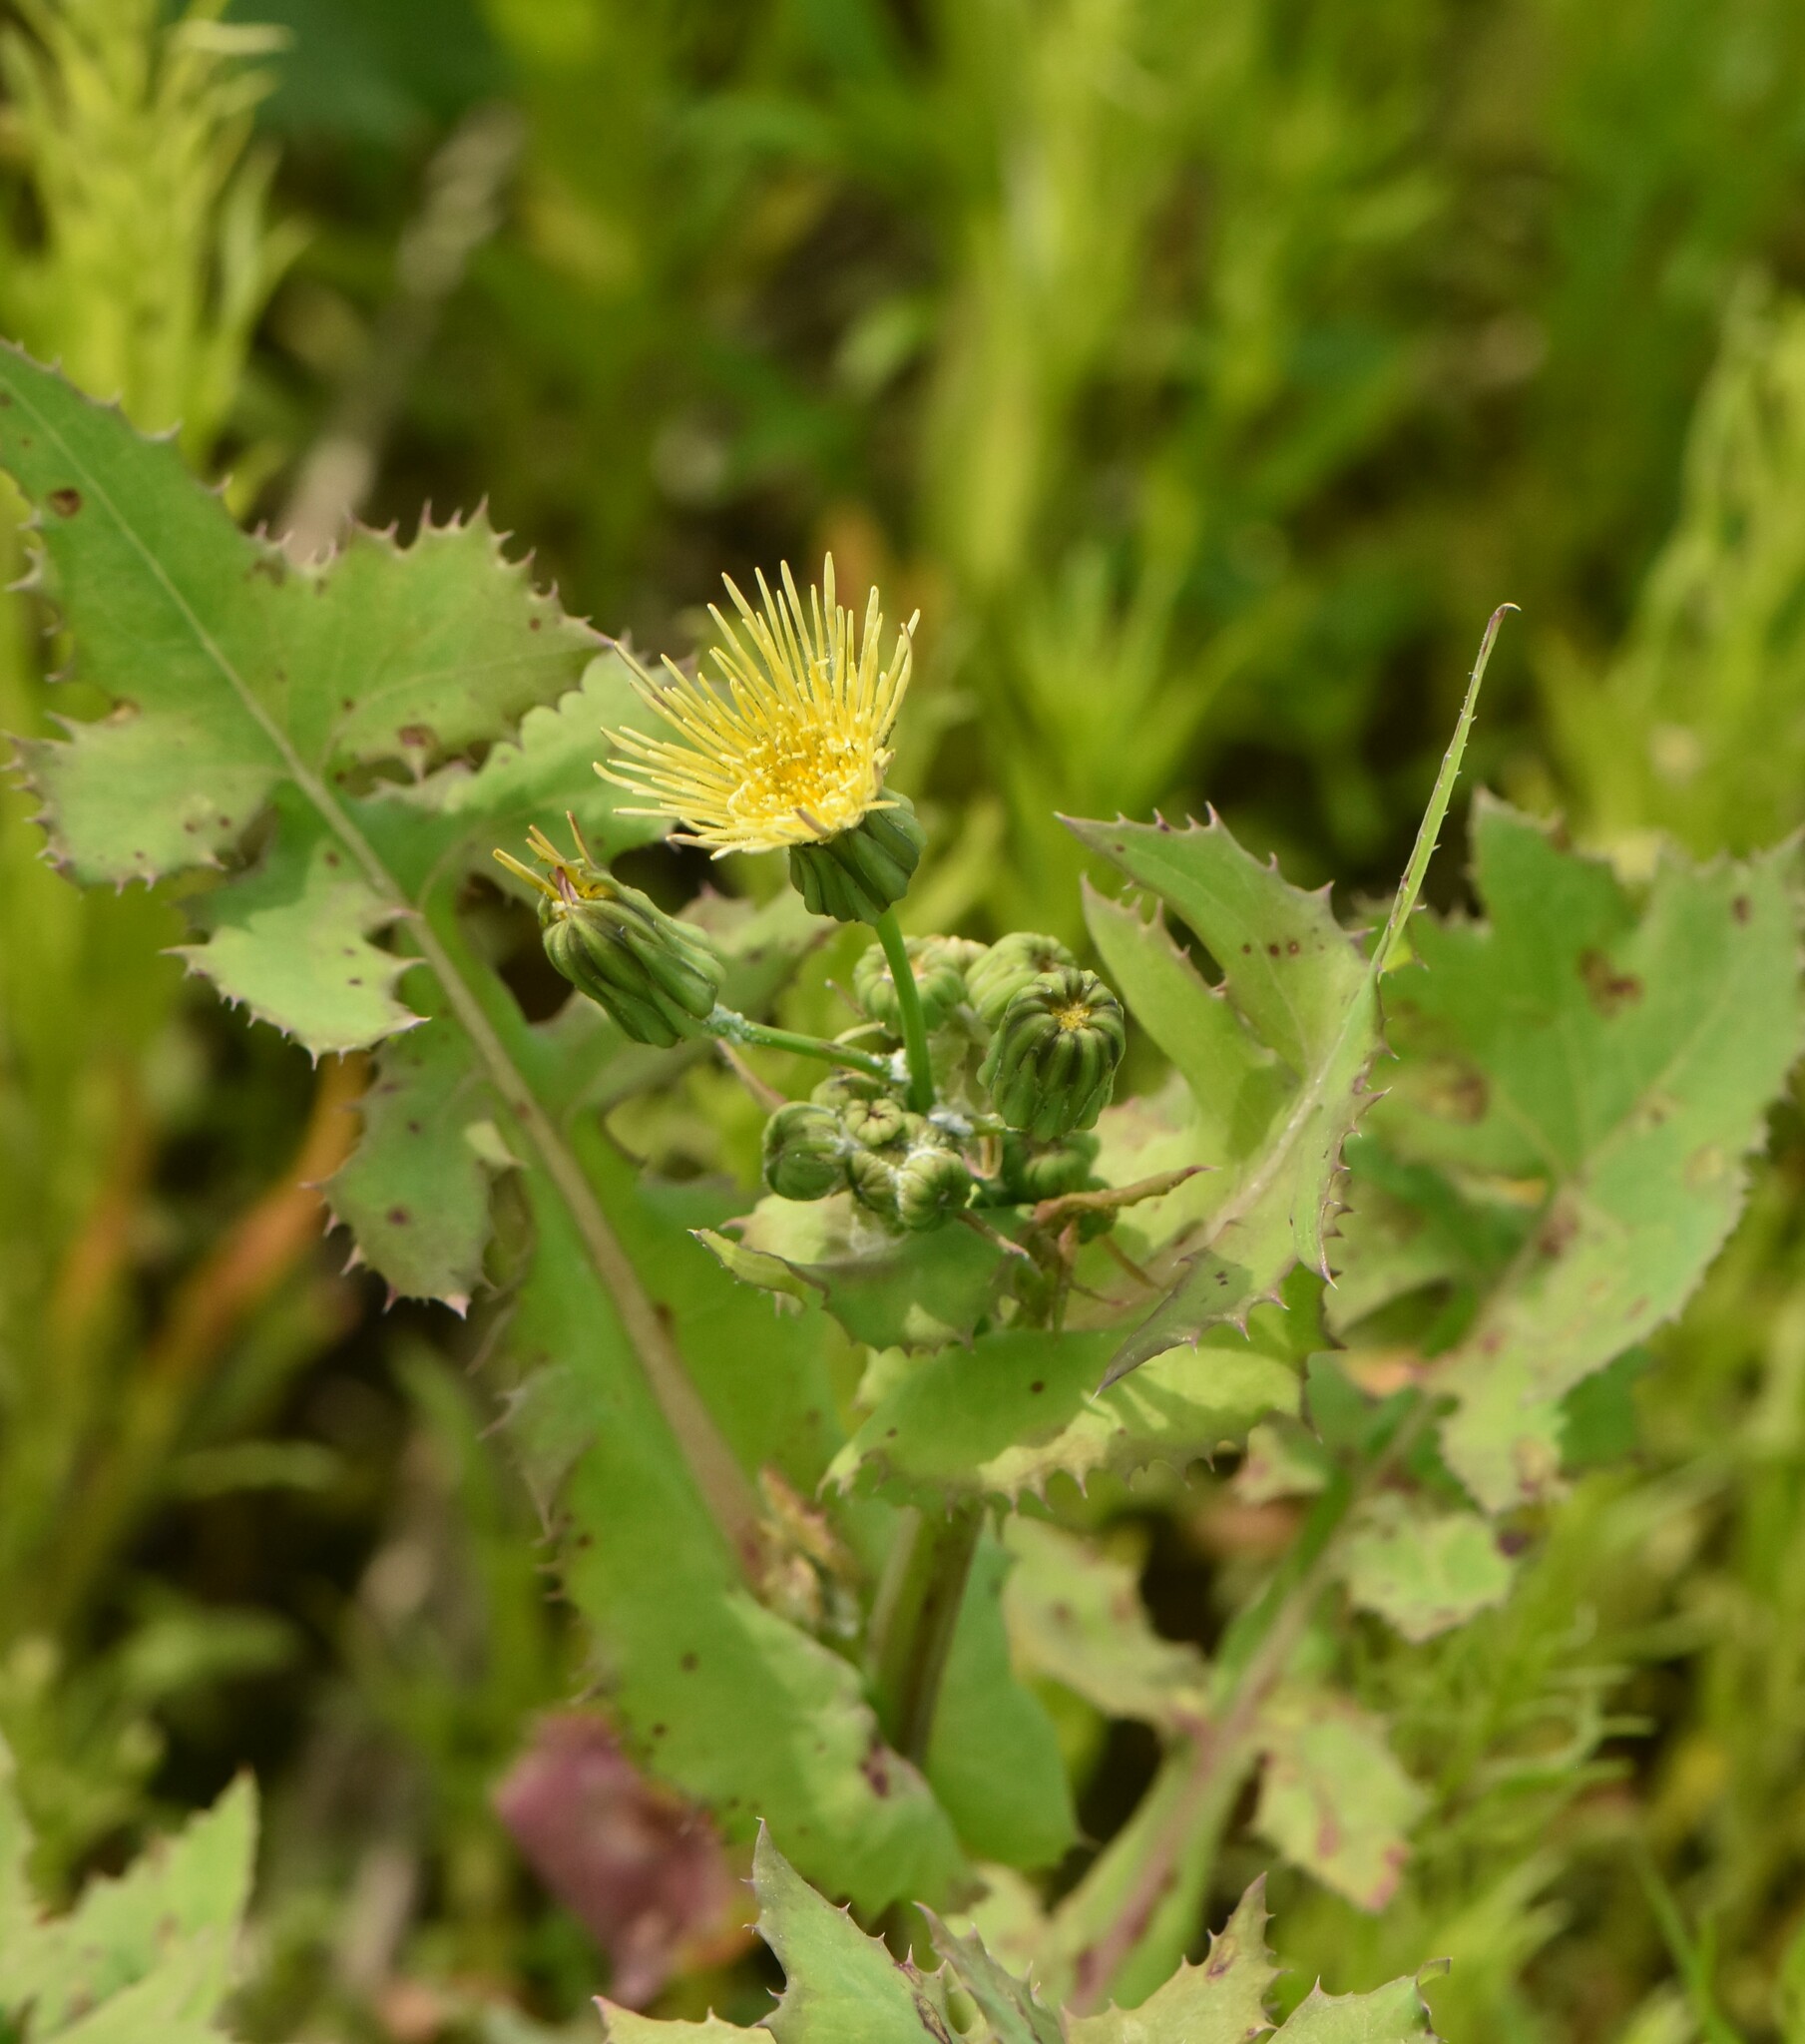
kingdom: Plantae
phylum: Tracheophyta
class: Magnoliopsida
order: Asterales
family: Asteraceae
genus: Sonchus
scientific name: Sonchus oleraceus
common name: Common sowthistle
